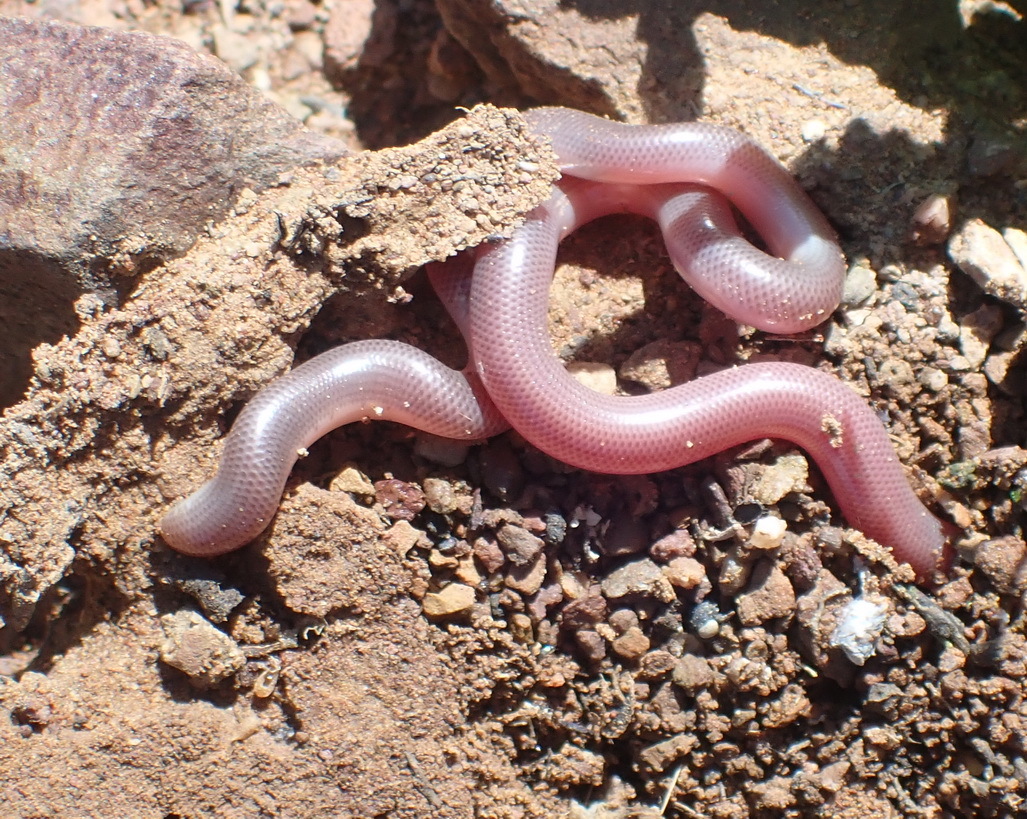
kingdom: Animalia
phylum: Chordata
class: Squamata
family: Typhlopidae
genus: Rhinotyphlops
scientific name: Rhinotyphlops lalandei
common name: Delalande's beaked blind snake
